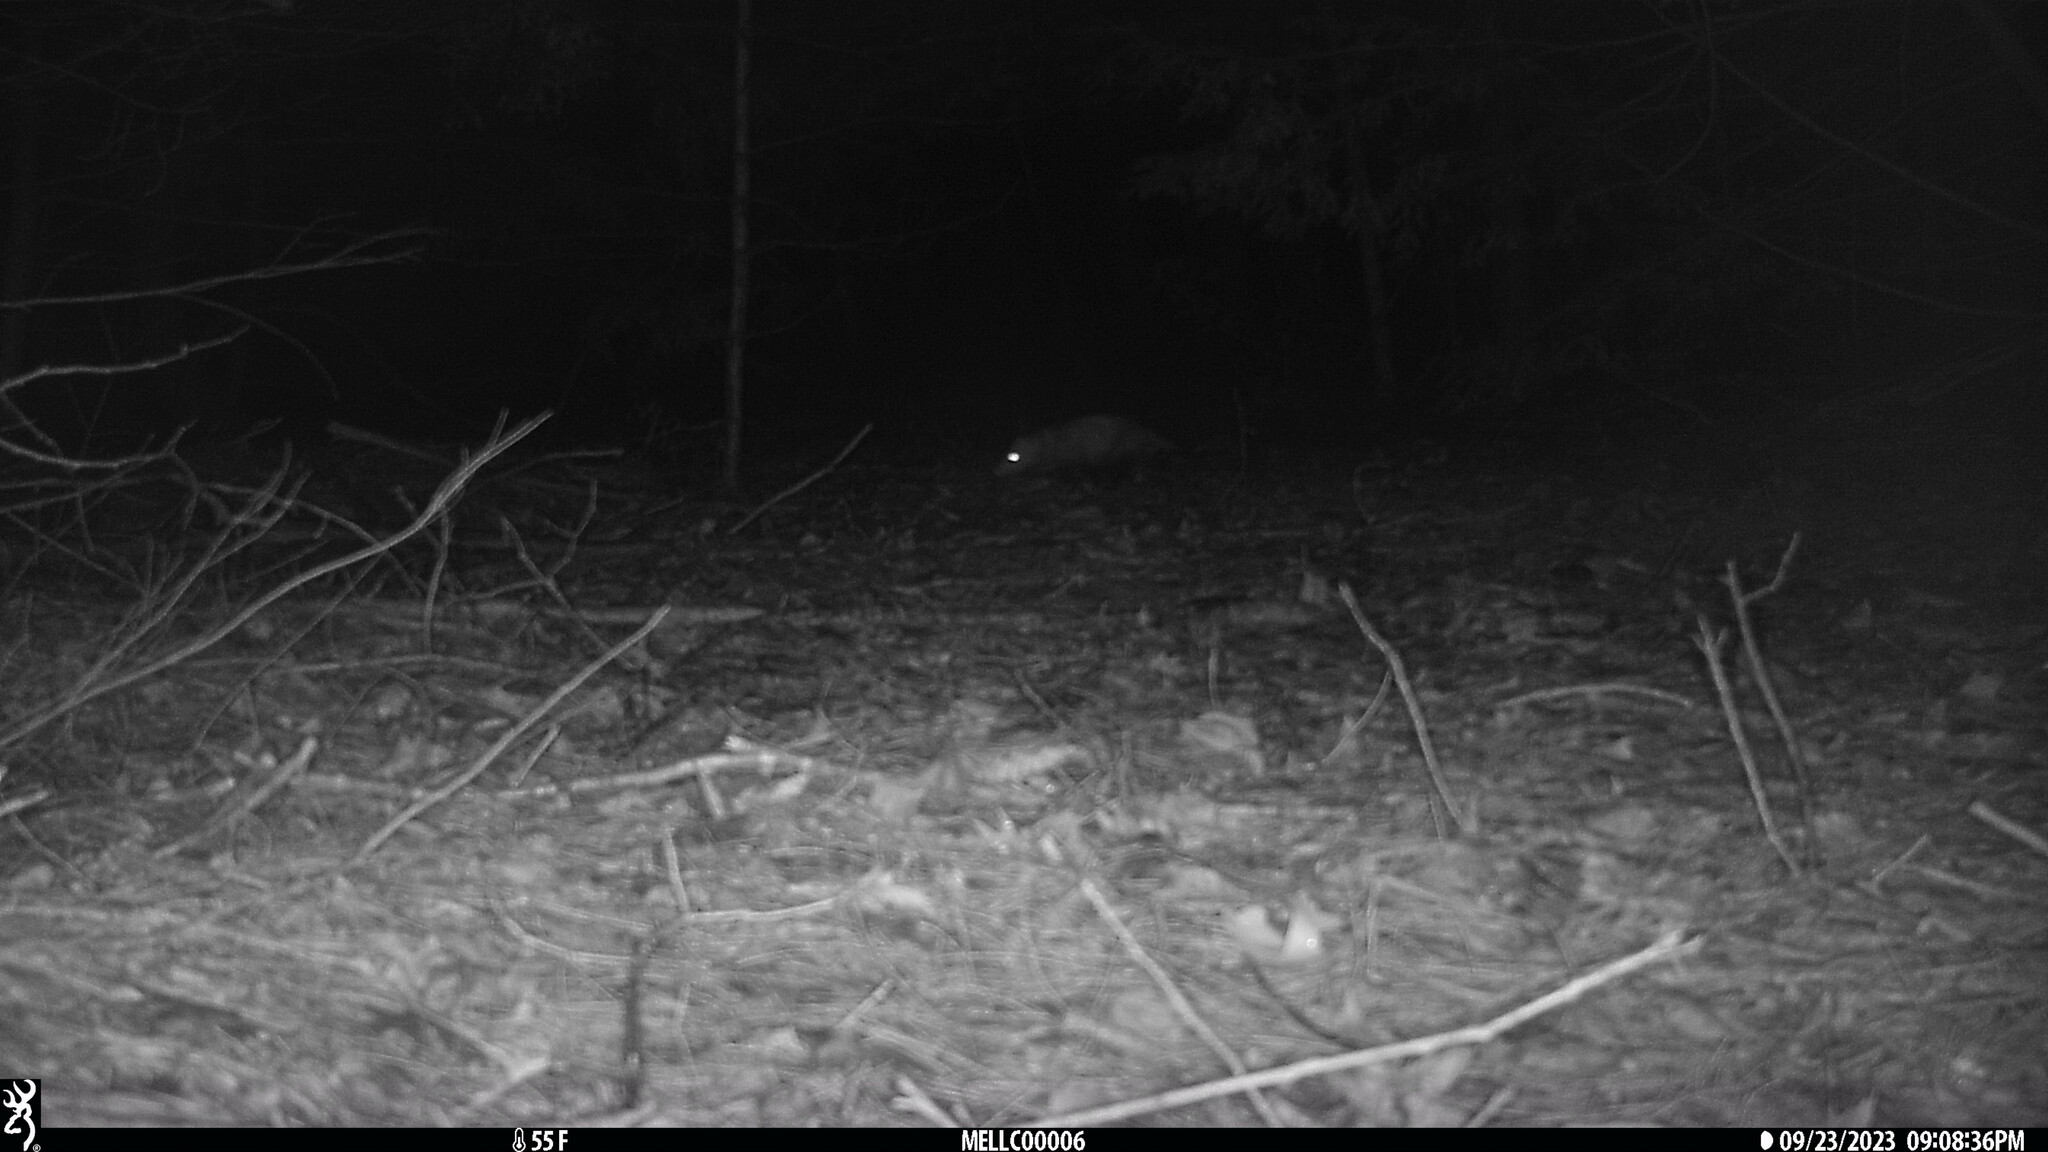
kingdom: Animalia
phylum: Chordata
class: Mammalia
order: Didelphimorphia
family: Didelphidae
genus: Didelphis
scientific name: Didelphis virginiana
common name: Virginia opossum
